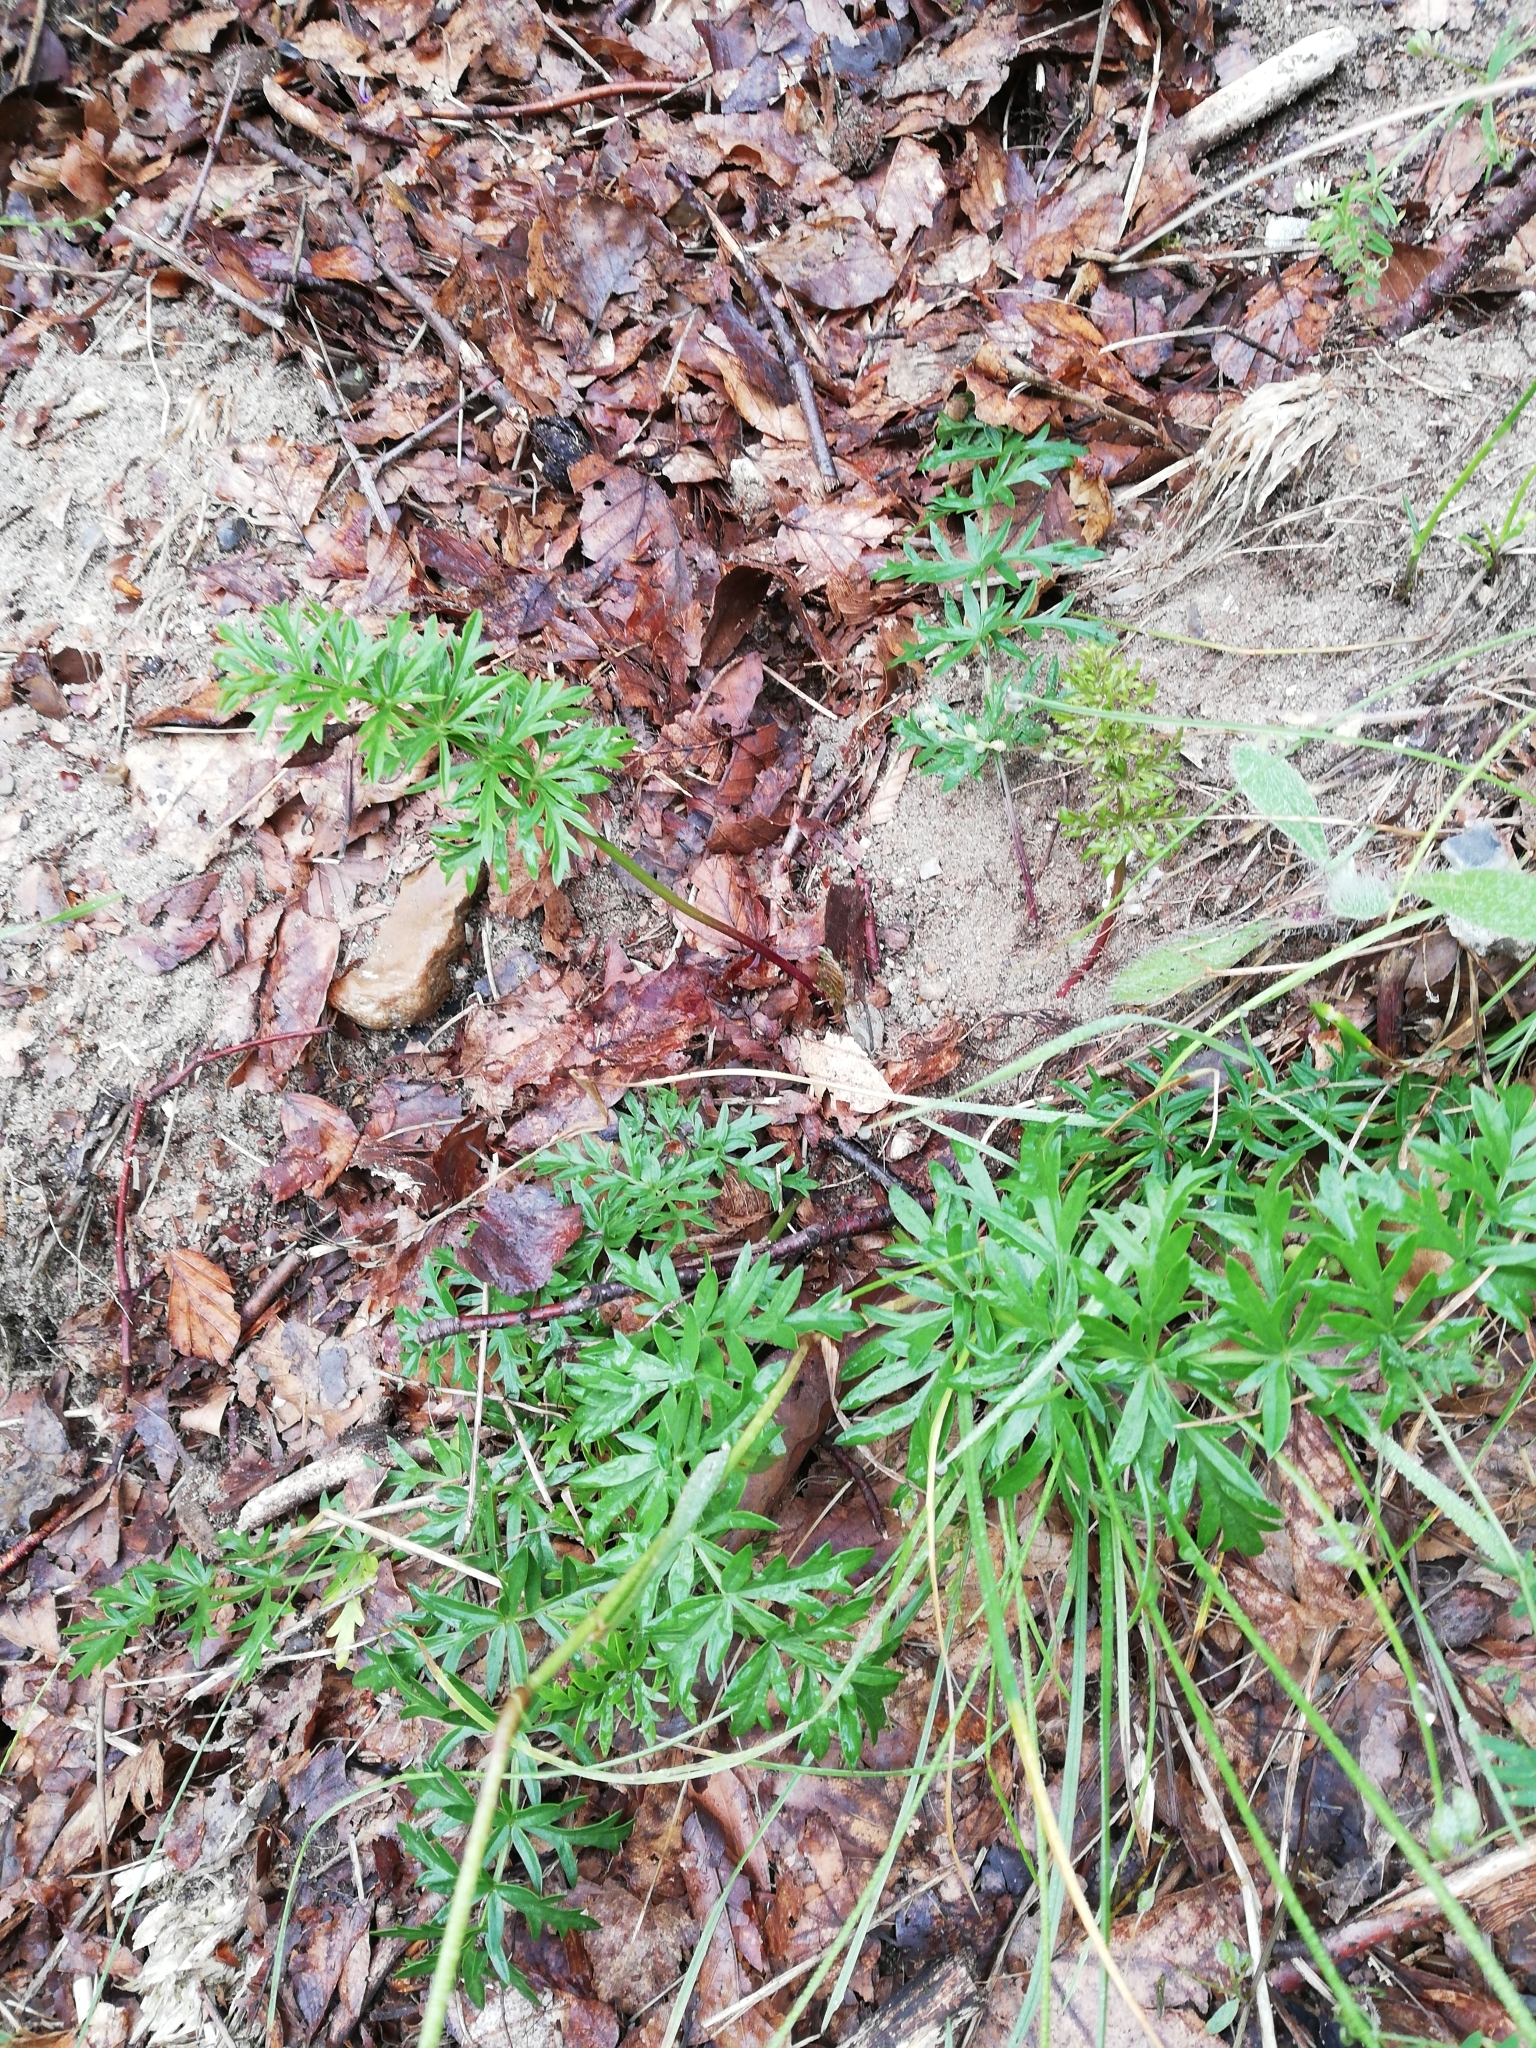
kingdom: Plantae
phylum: Tracheophyta
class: Magnoliopsida
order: Apiales
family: Apiaceae
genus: Pimpinella
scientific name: Pimpinella saxifraga
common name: Burnet-saxifrage
